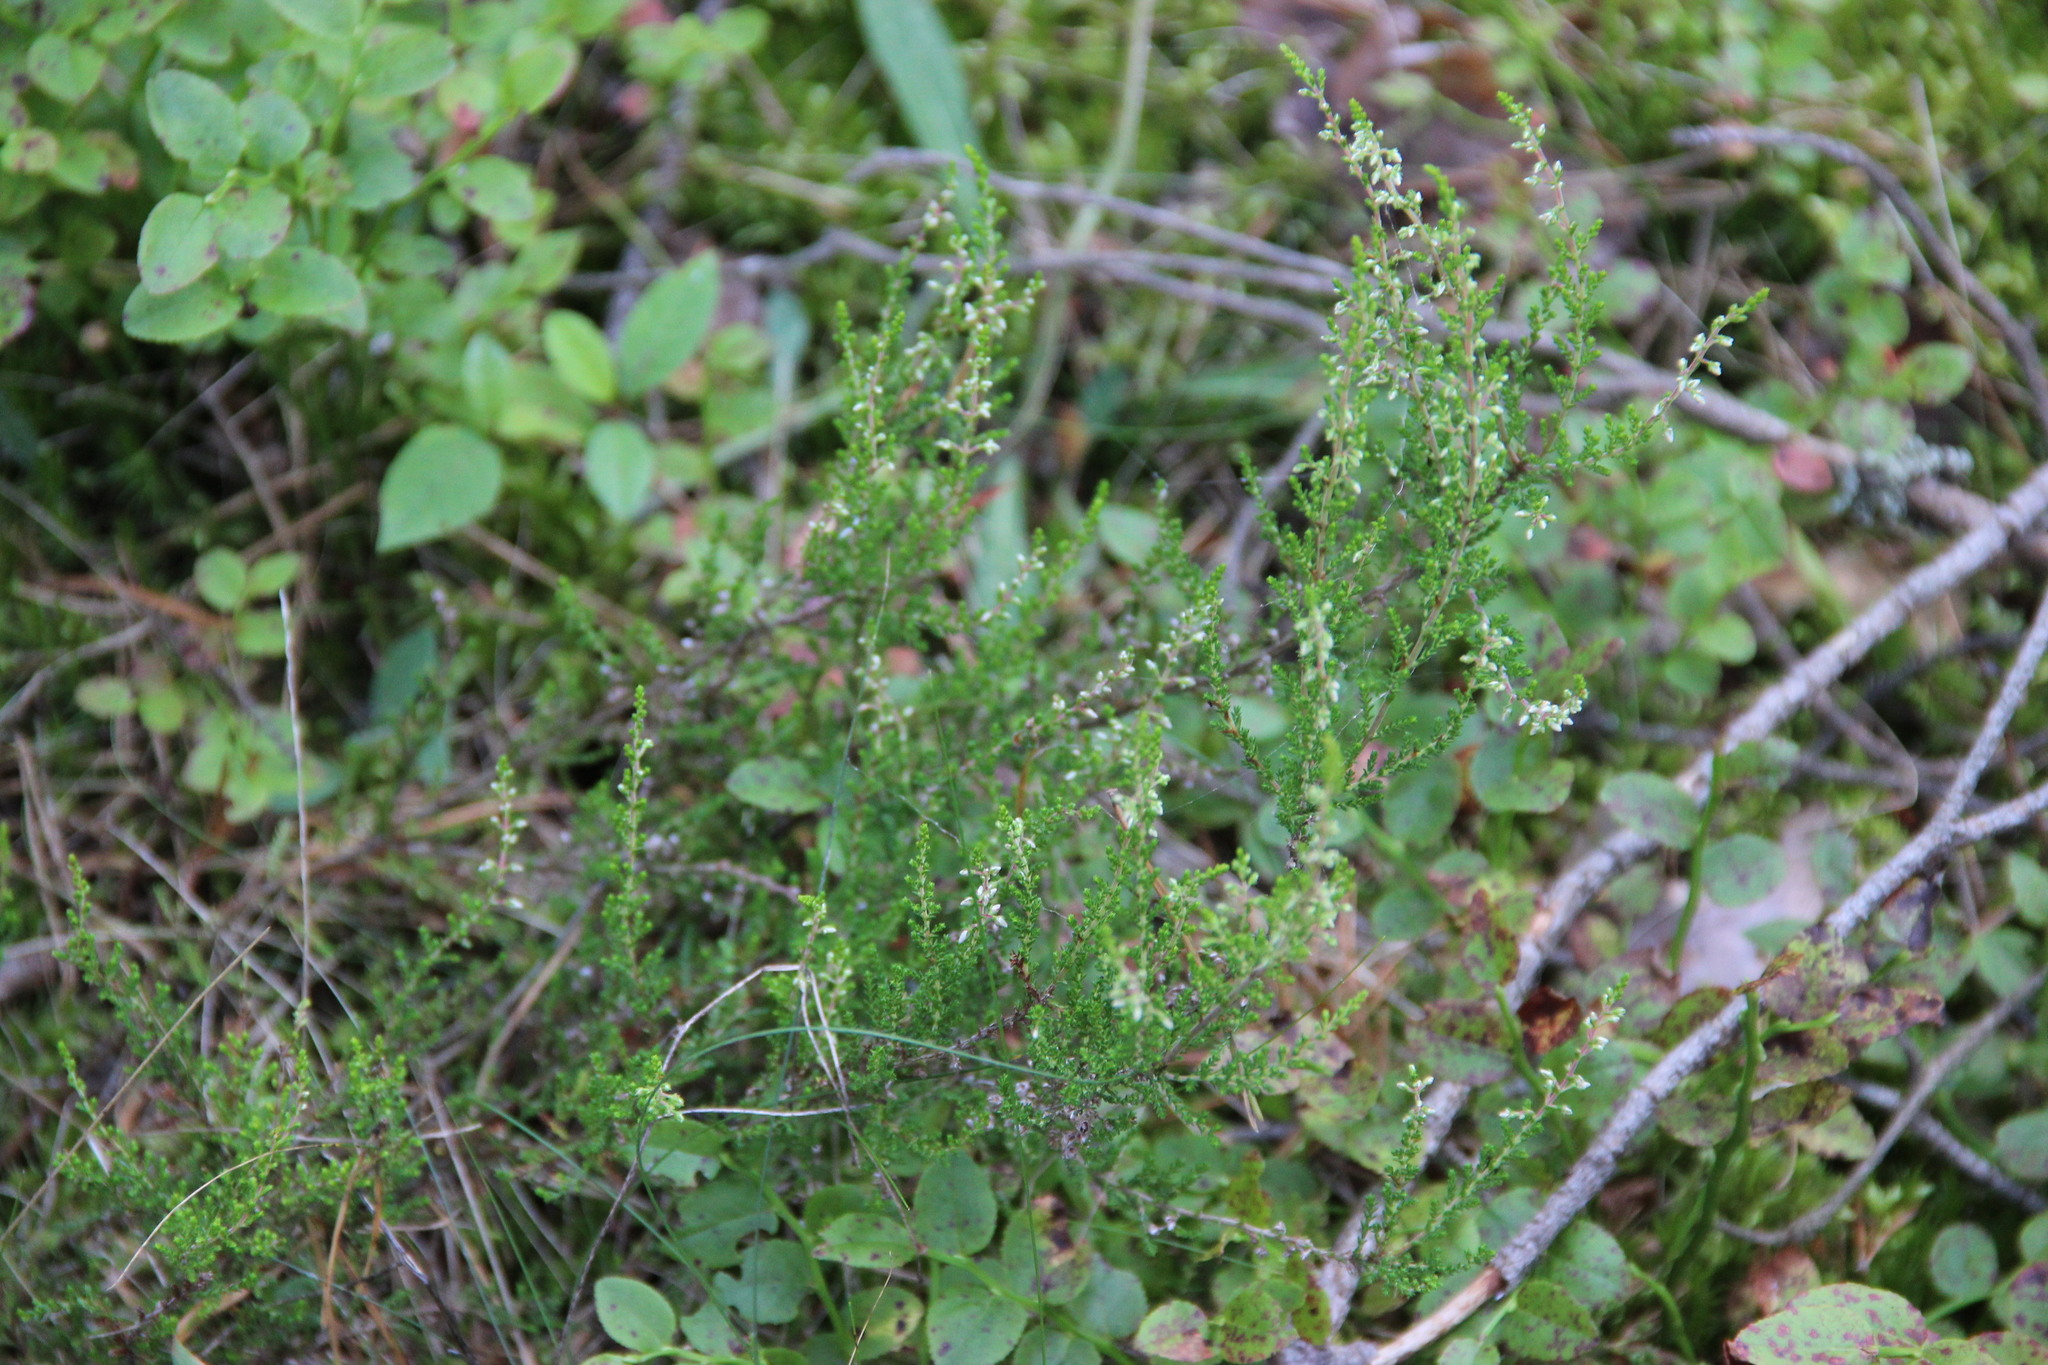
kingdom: Plantae
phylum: Tracheophyta
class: Magnoliopsida
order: Ericales
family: Ericaceae
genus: Calluna
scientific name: Calluna vulgaris
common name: Heather
